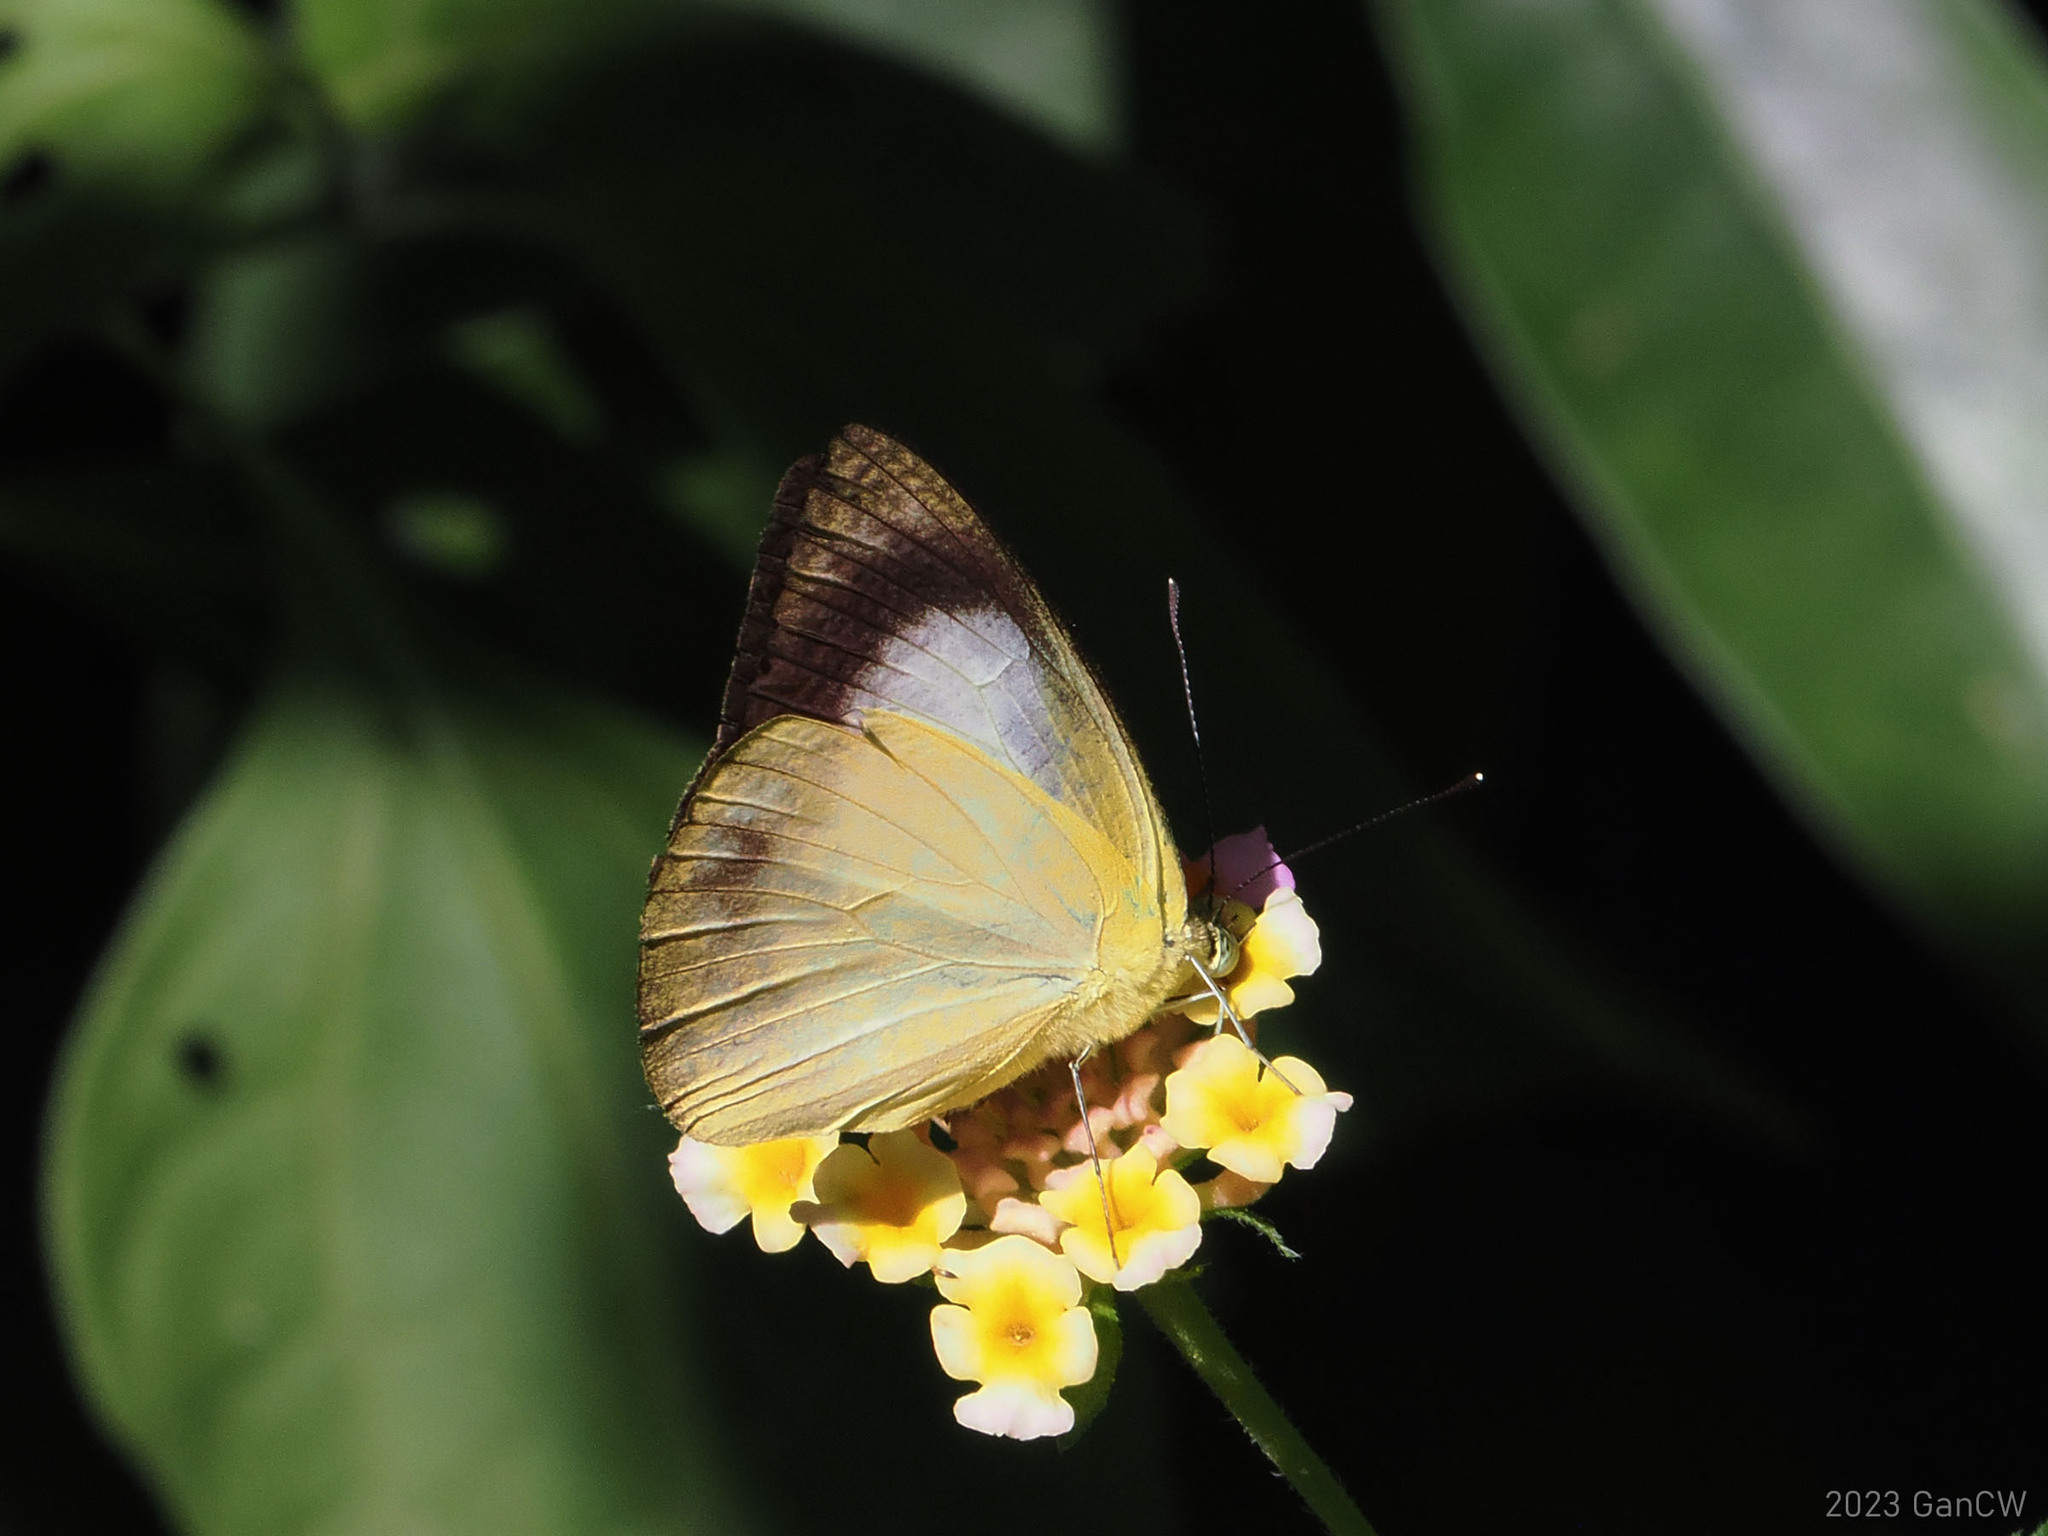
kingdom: Animalia
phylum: Arthropoda
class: Insecta
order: Lepidoptera
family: Pieridae
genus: Appias
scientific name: Appias phoebe
